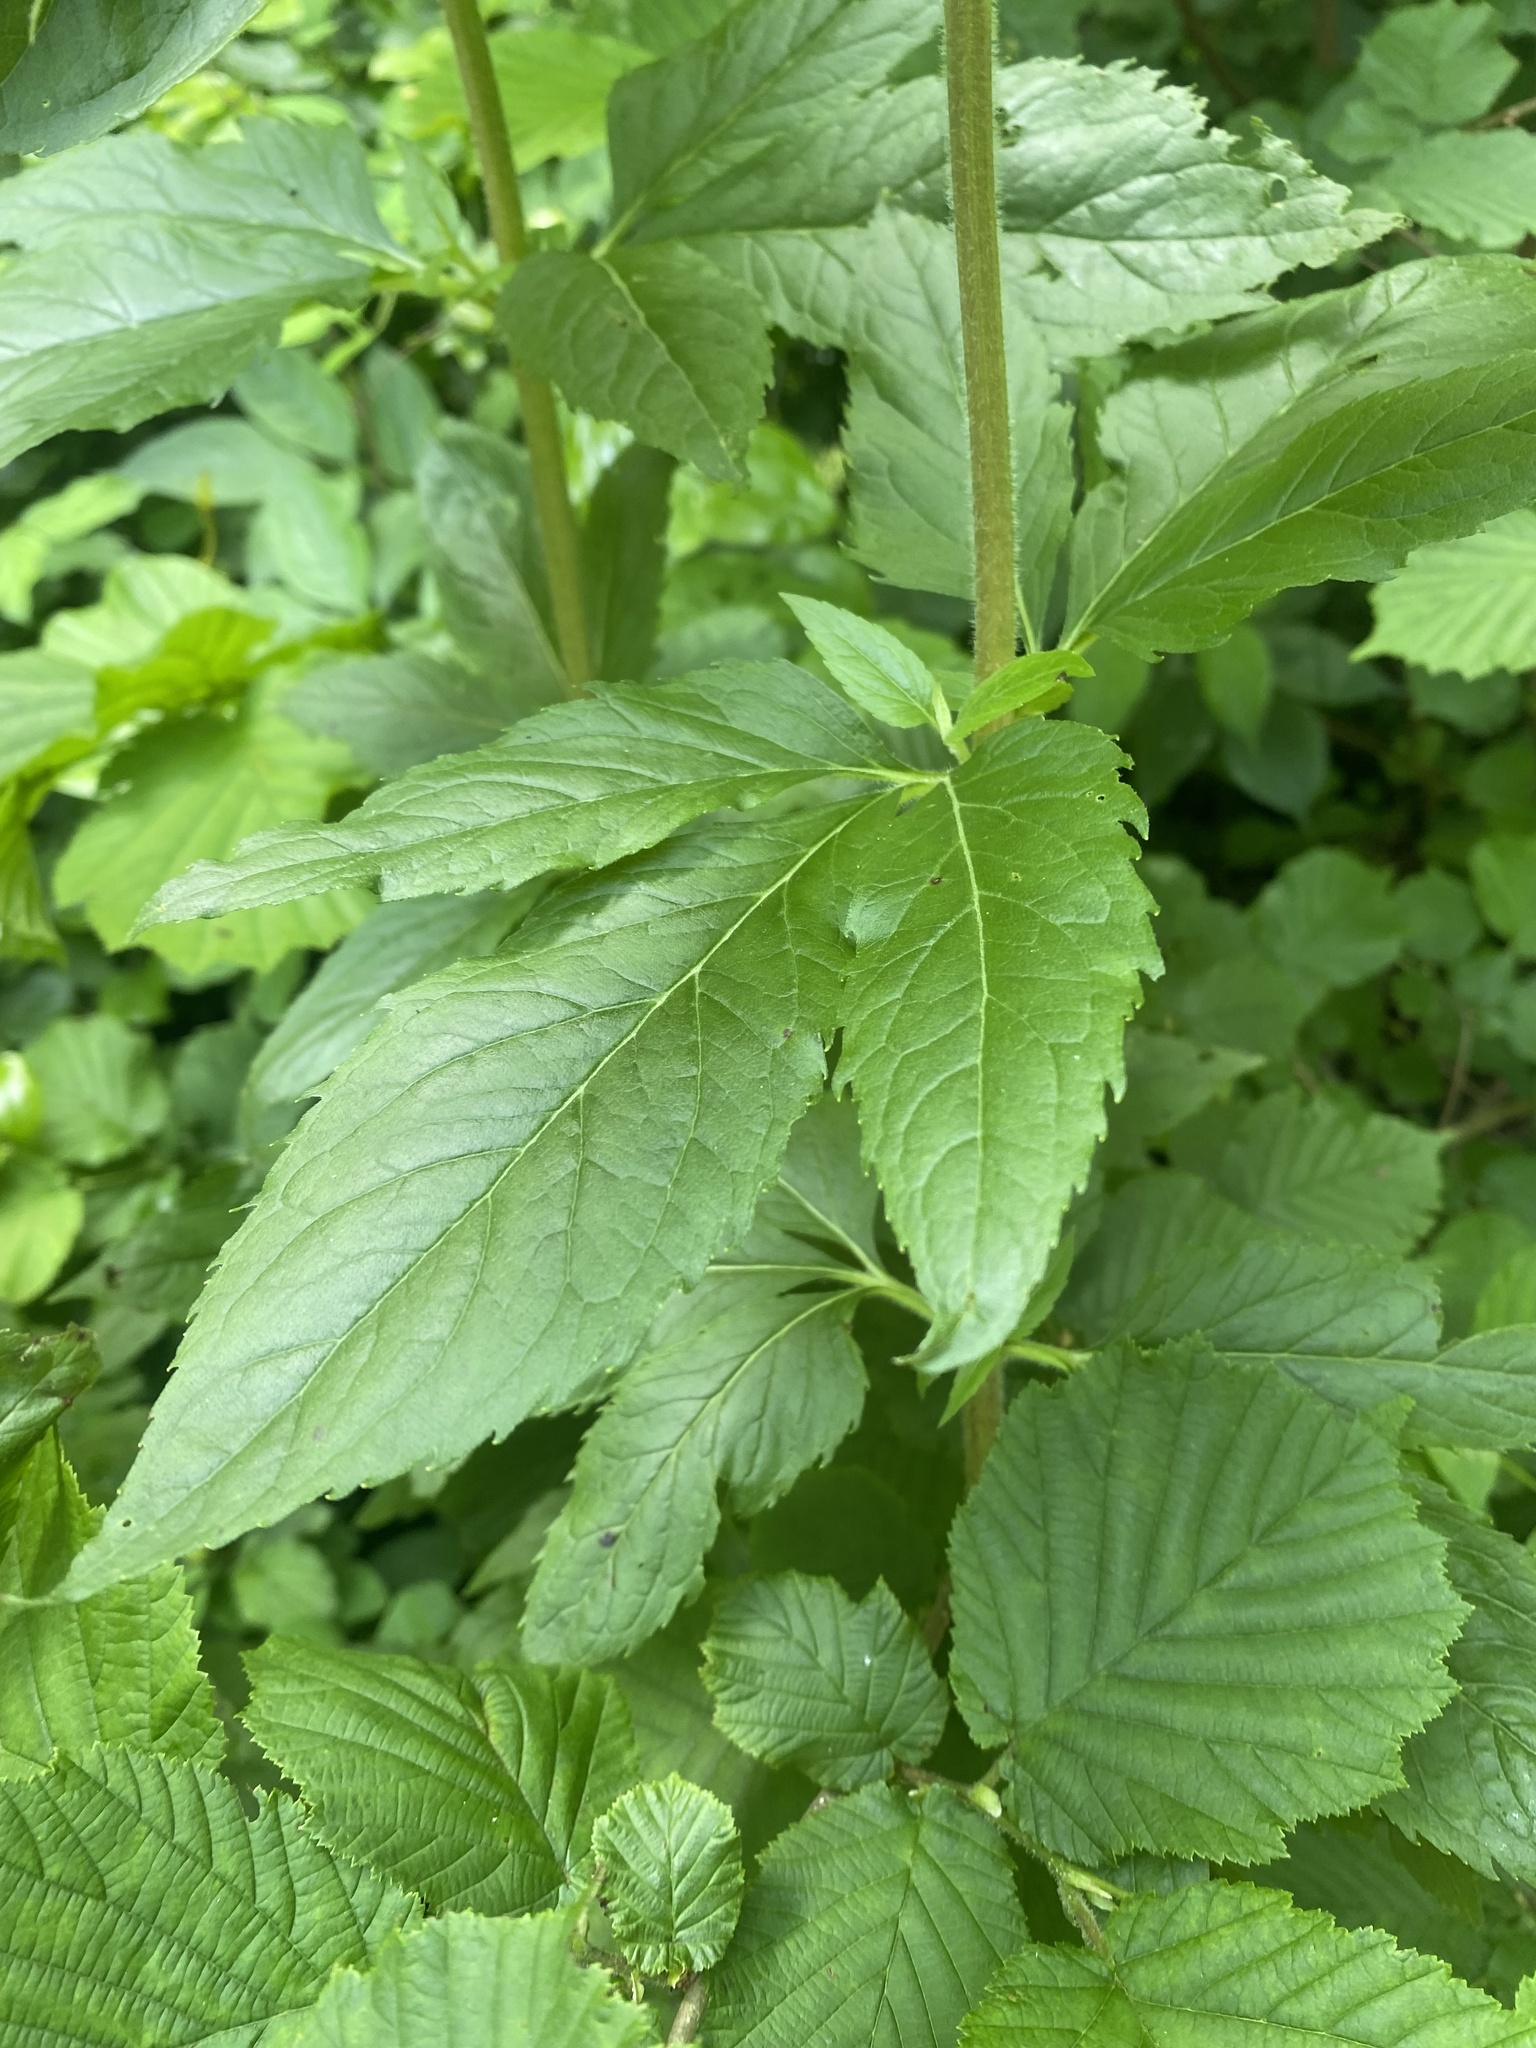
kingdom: Plantae
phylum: Tracheophyta
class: Magnoliopsida
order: Asterales
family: Asteraceae
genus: Eupatorium
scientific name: Eupatorium cannabinum
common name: Hemp-agrimony
